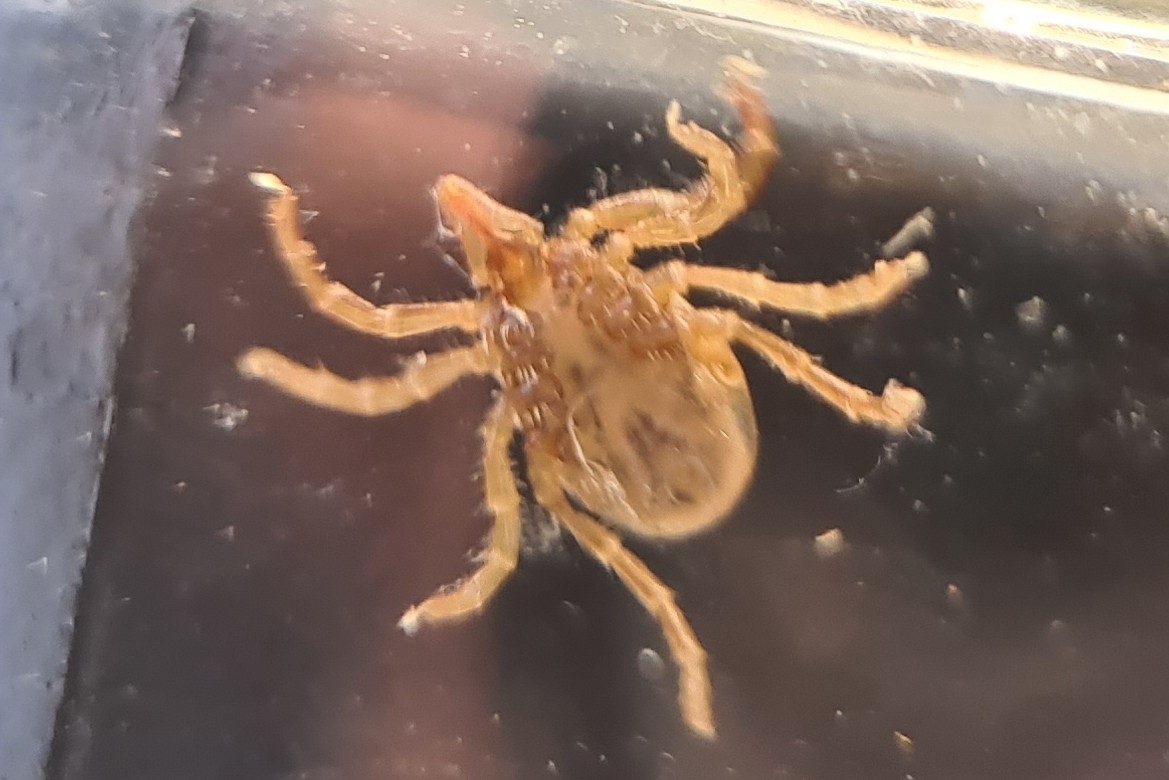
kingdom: Animalia
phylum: Arthropoda
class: Arachnida
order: Ixodida
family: Ixodidae
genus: Ixodes
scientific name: Ixodes holocyclus
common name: Australian paralysis tick
